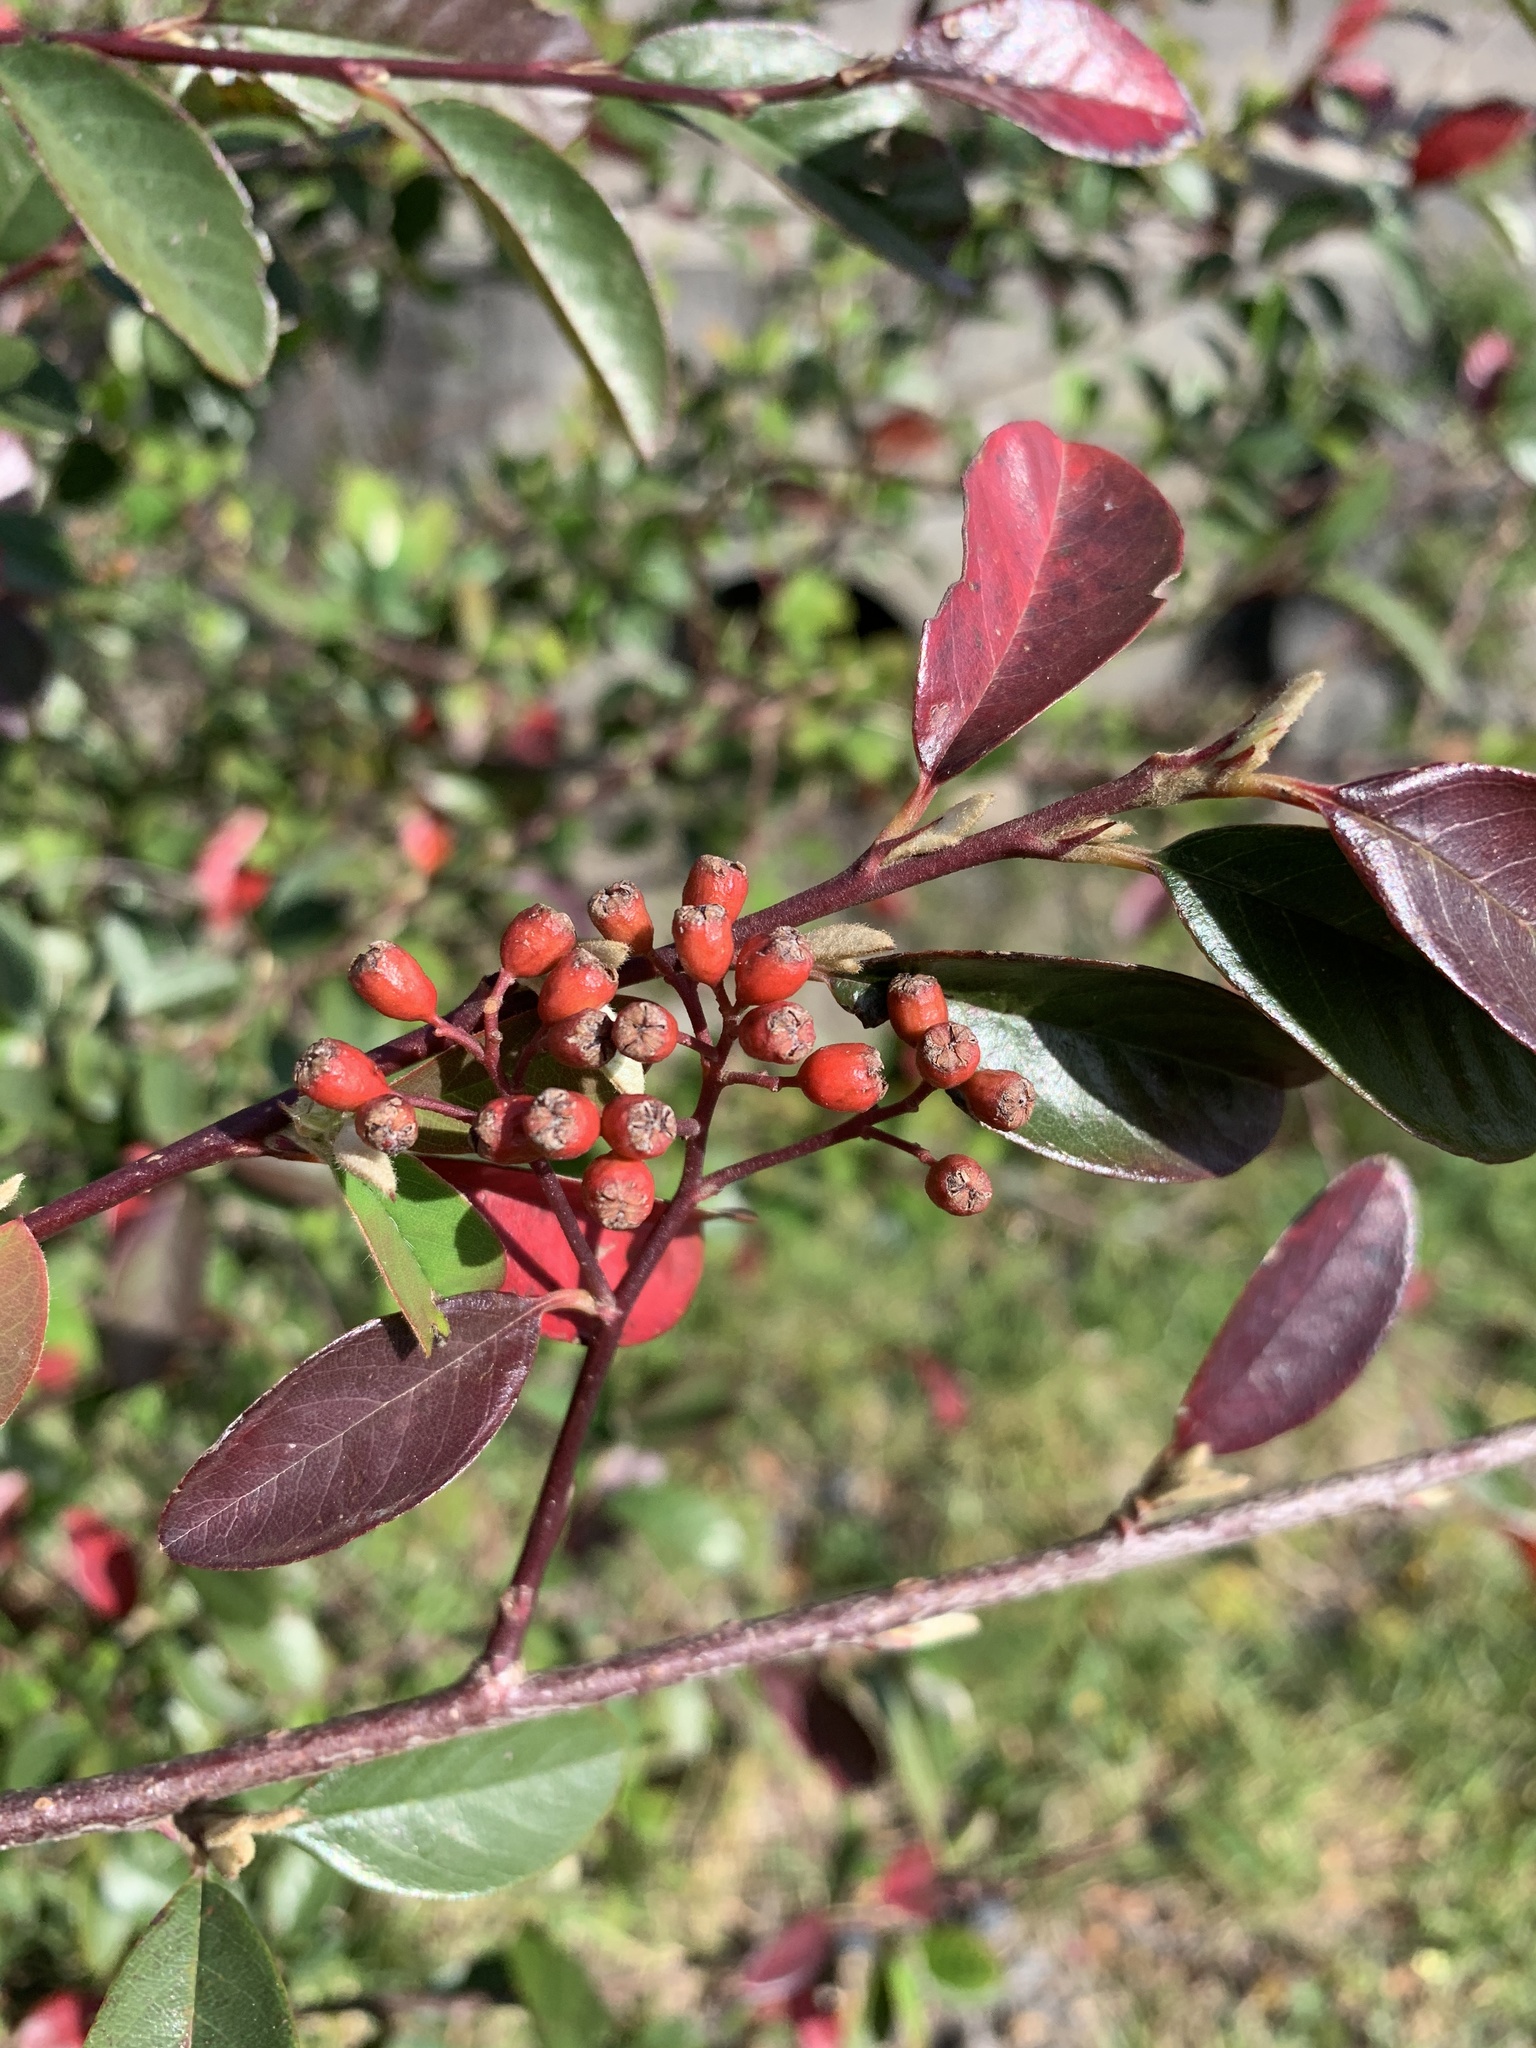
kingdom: Plantae
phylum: Tracheophyta
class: Magnoliopsida
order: Rosales
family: Rosaceae
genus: Cotoneaster
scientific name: Cotoneaster glaucophyllus
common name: Glaucous cotoneaster
